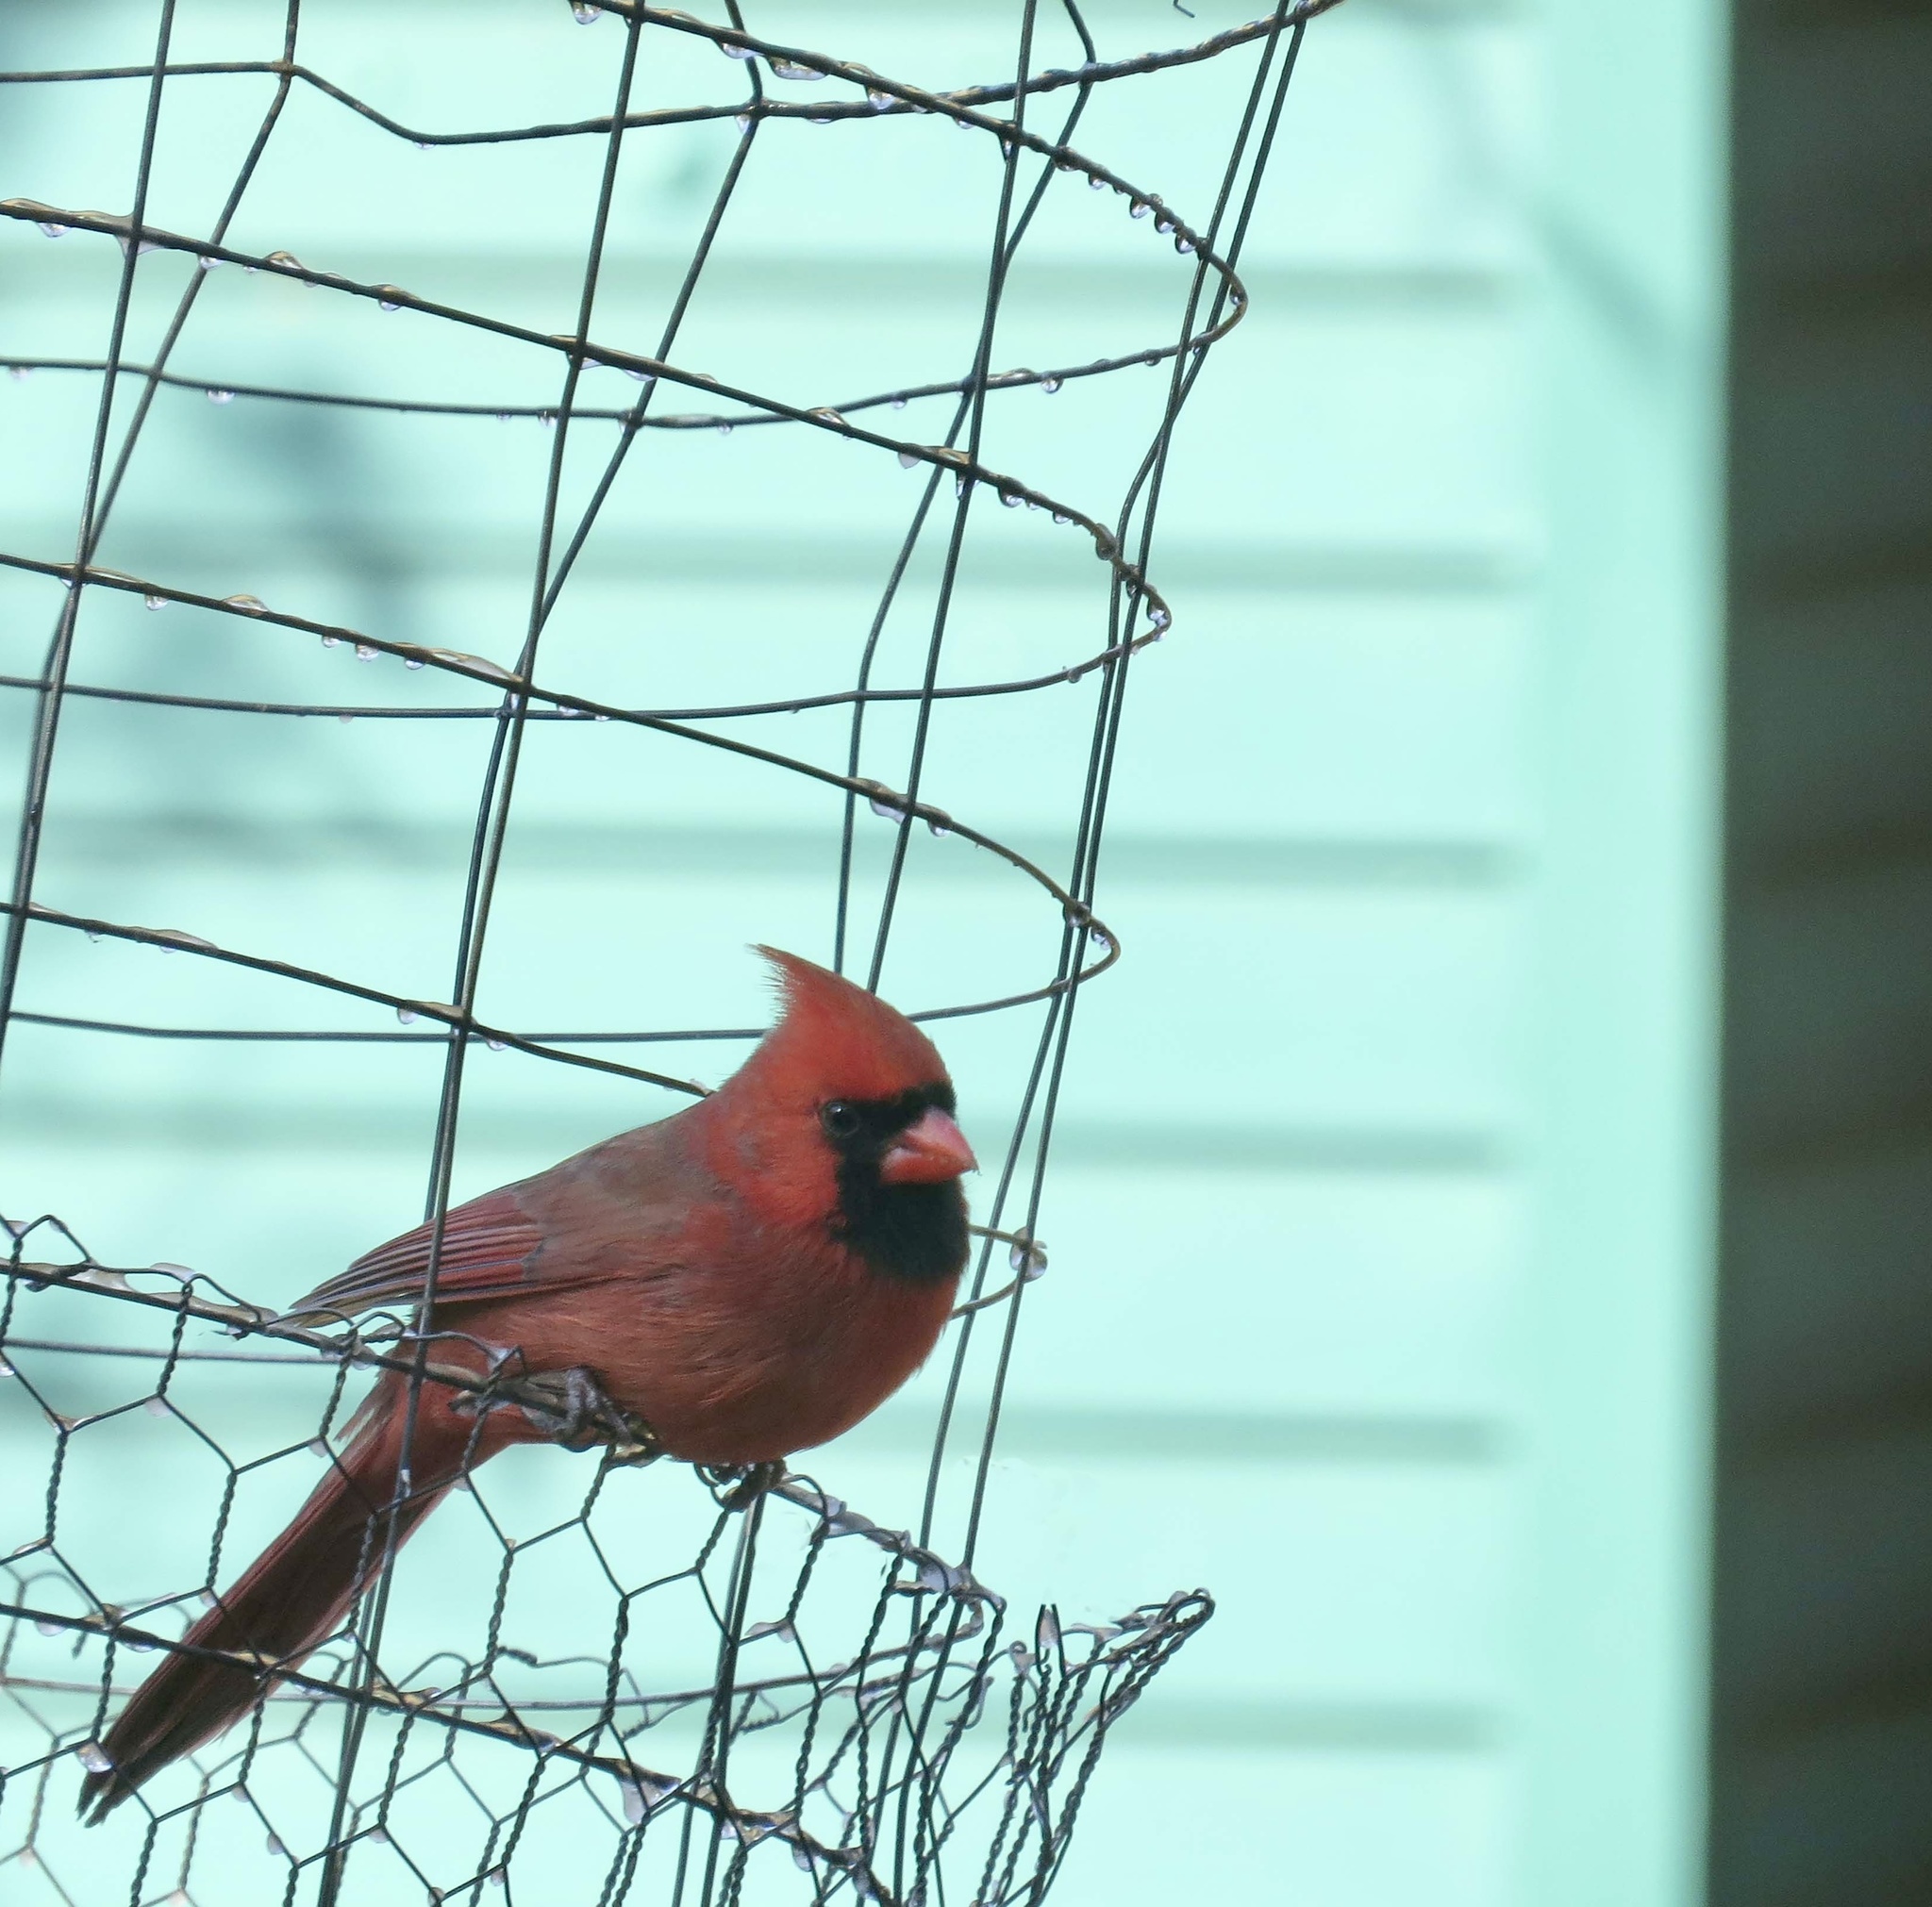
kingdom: Animalia
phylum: Chordata
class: Aves
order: Passeriformes
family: Cardinalidae
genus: Cardinalis
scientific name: Cardinalis cardinalis
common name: Northern cardinal
